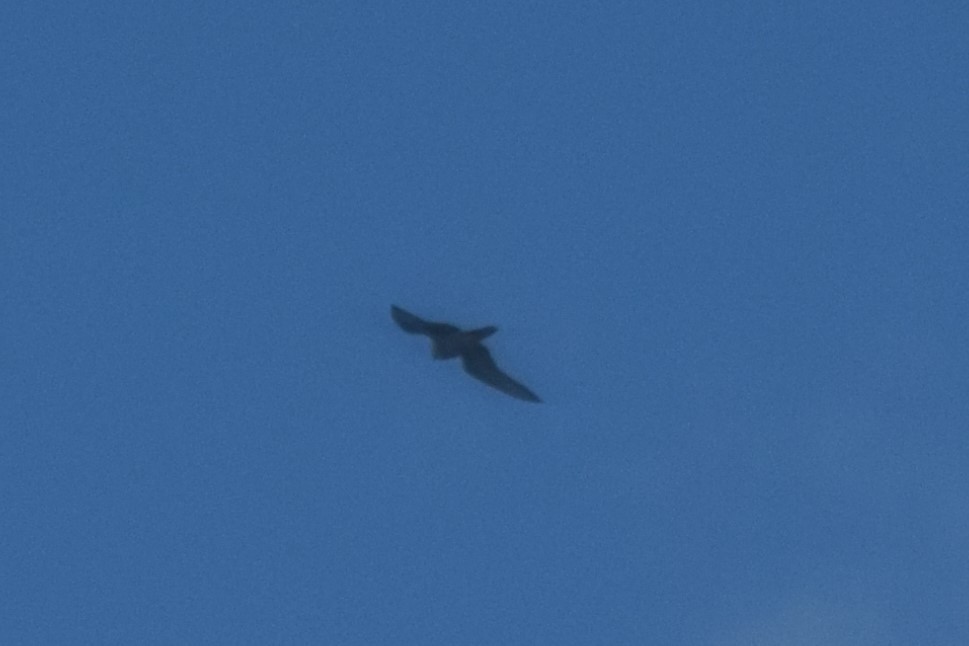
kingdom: Animalia
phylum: Chordata
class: Aves
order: Falconiformes
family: Falconidae
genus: Falco
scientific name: Falco peregrinus
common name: Peregrine falcon
